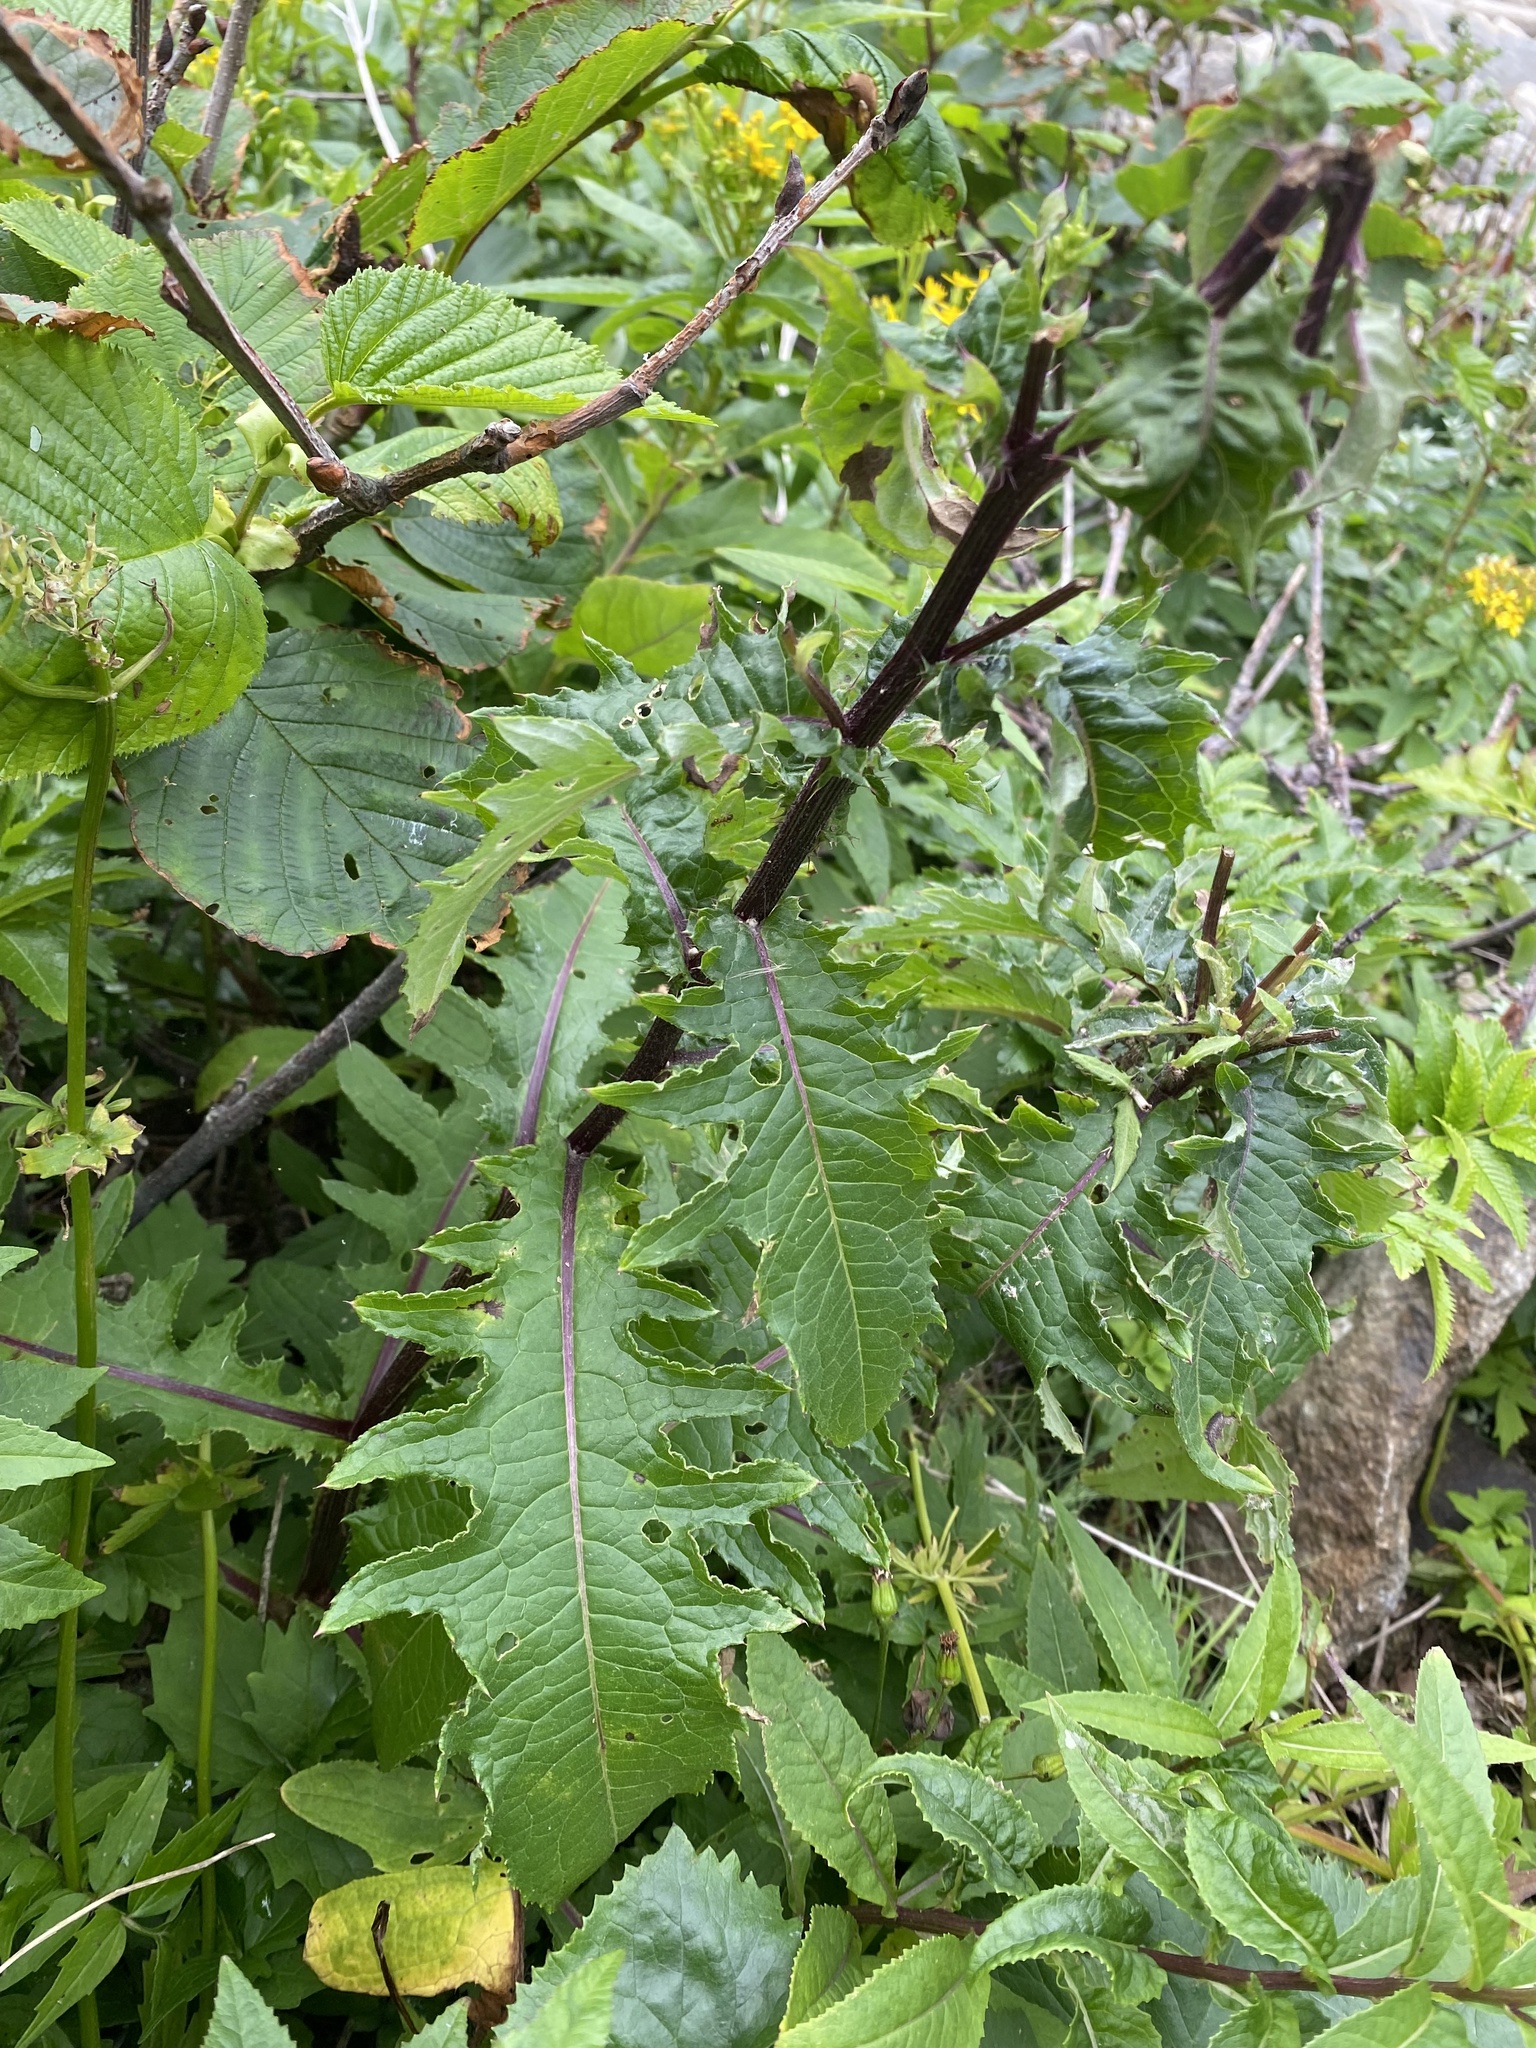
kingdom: Plantae
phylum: Tracheophyta
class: Magnoliopsida
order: Asterales
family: Asteraceae
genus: Cirsium
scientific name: Cirsium kamtschaticum
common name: Kamchatka thistle
